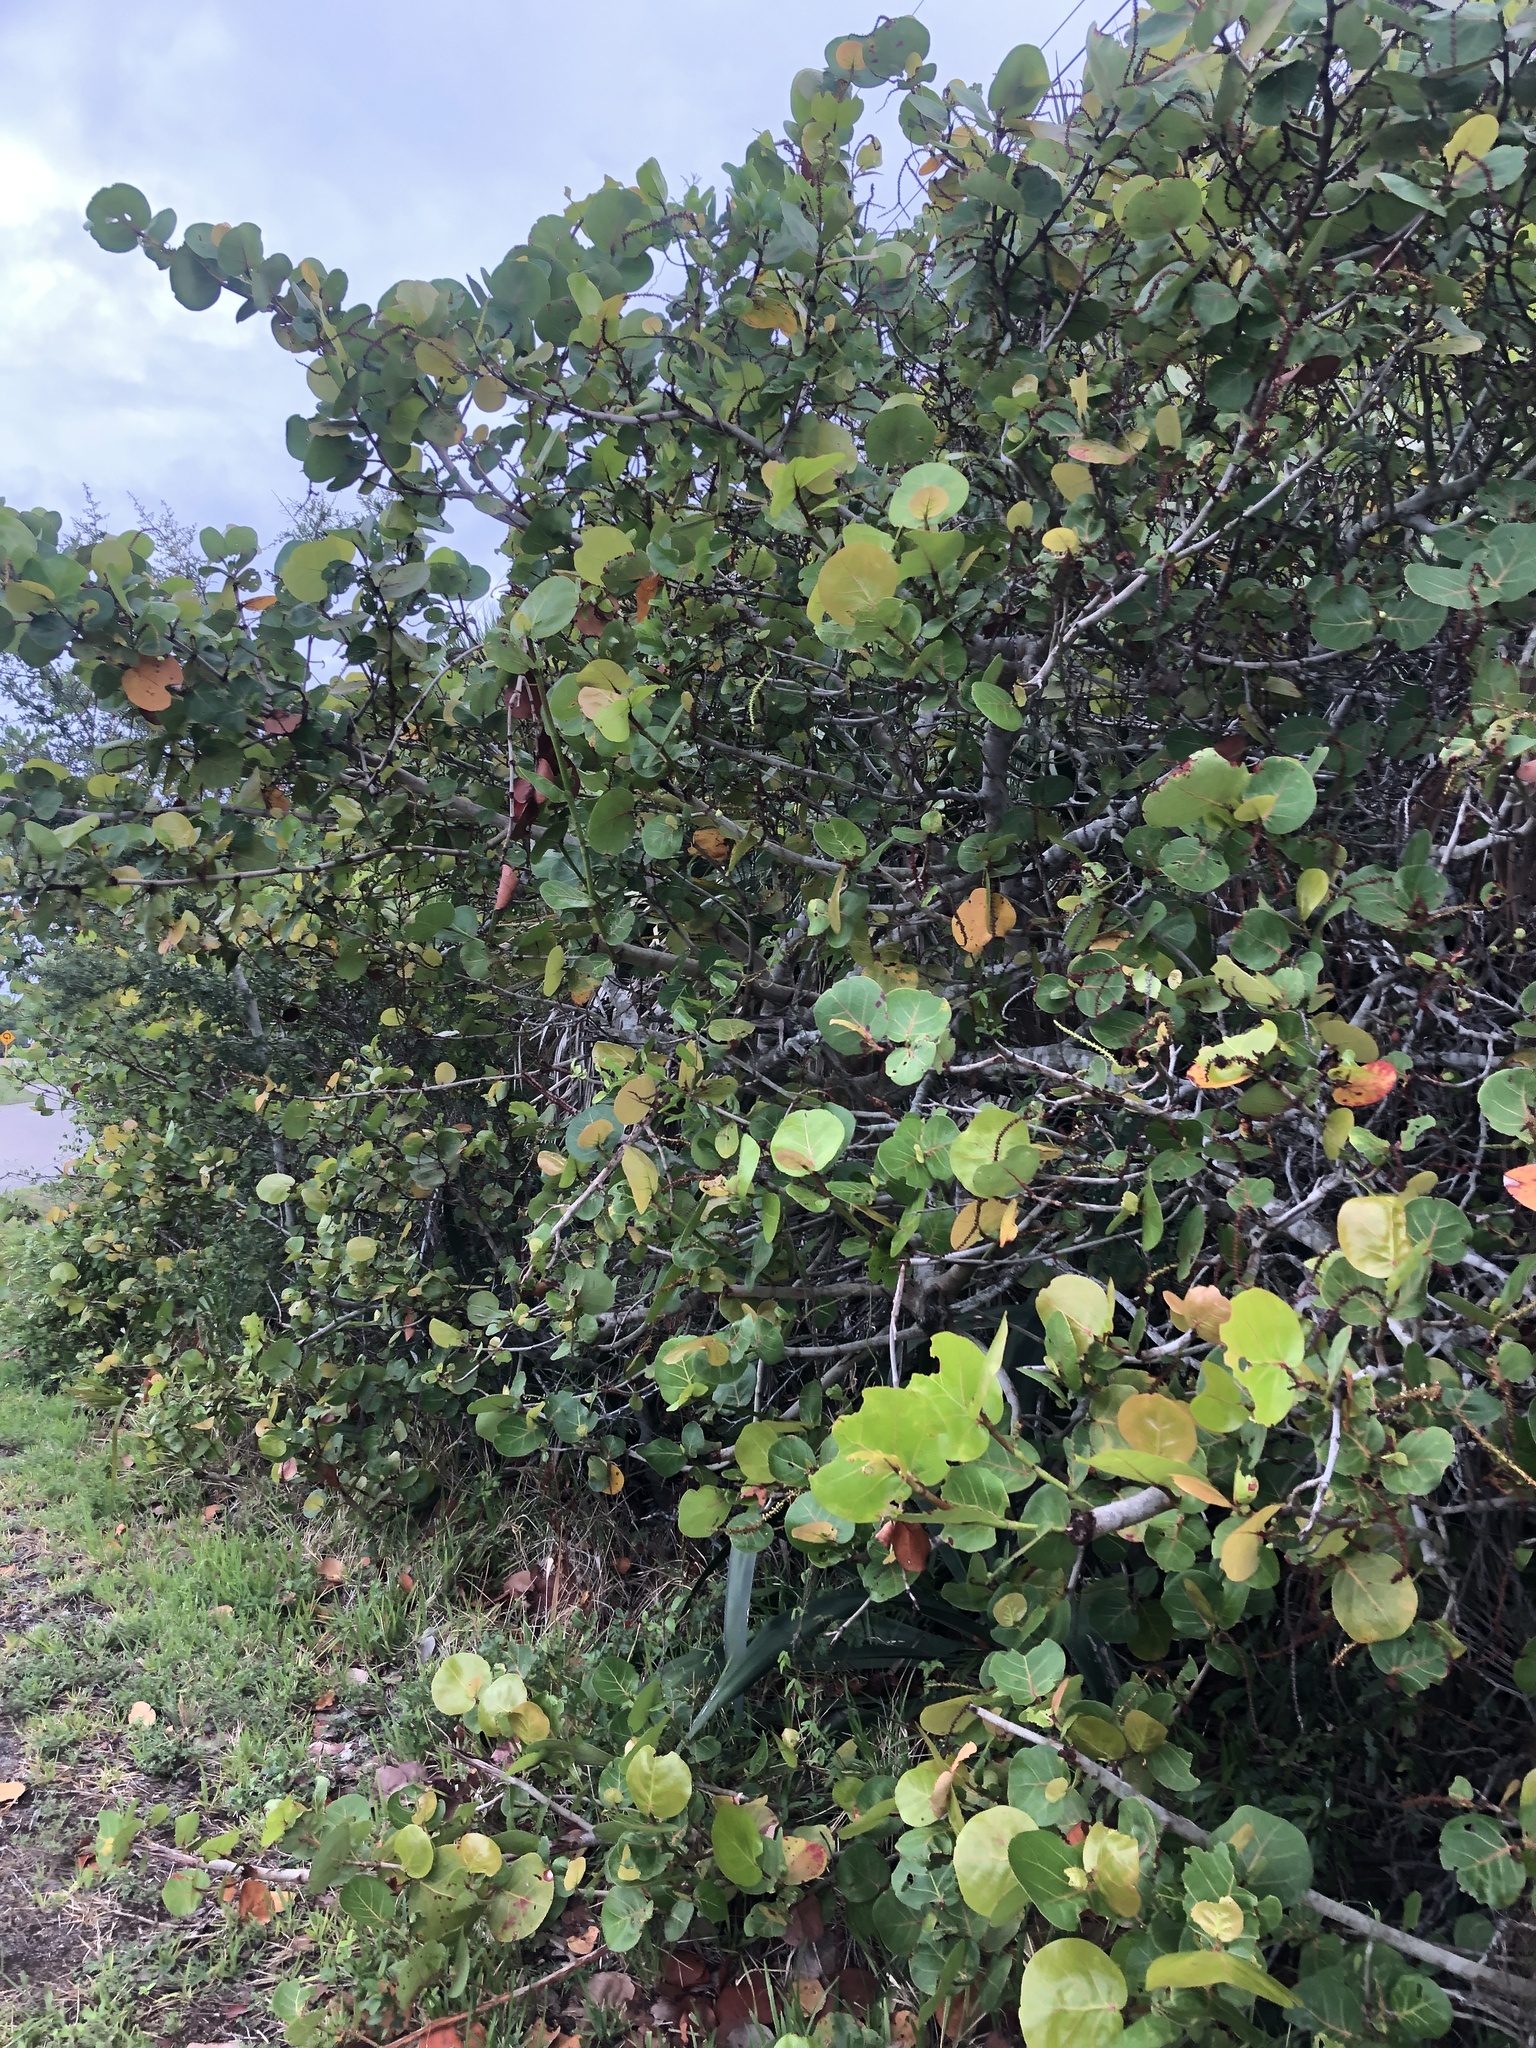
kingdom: Plantae
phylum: Tracheophyta
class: Magnoliopsida
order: Caryophyllales
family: Polygonaceae
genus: Coccoloba
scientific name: Coccoloba uvifera
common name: Seagrape
